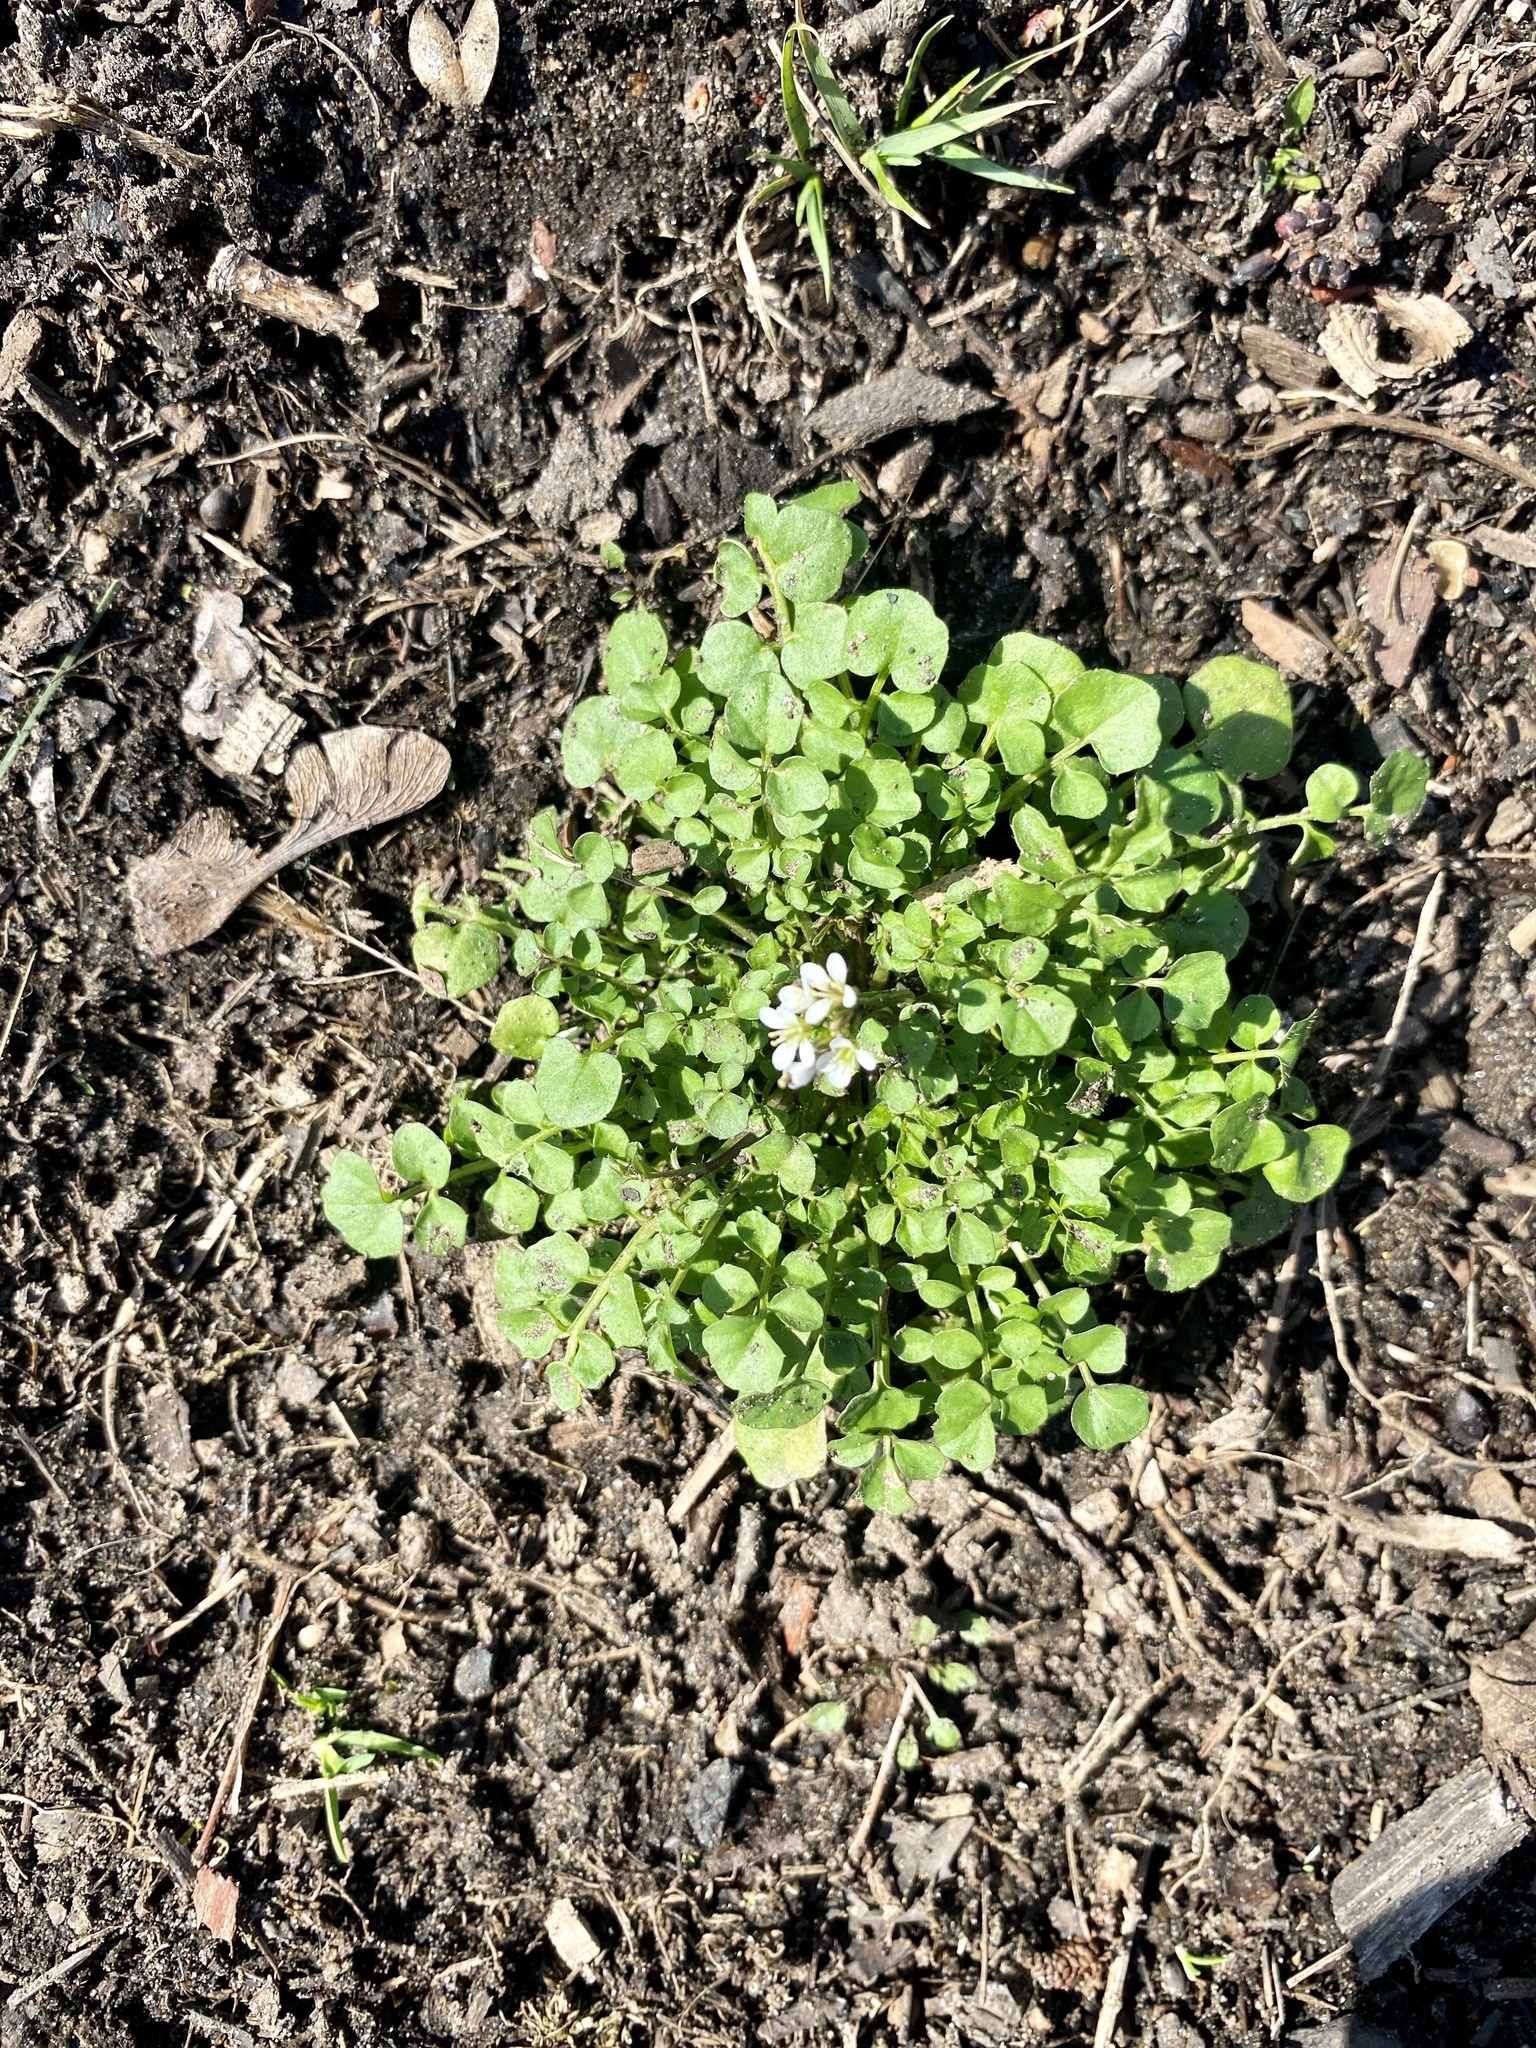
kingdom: Plantae
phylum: Tracheophyta
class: Magnoliopsida
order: Brassicales
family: Brassicaceae
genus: Cardamine
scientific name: Cardamine hirsuta
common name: Hairy bittercress
